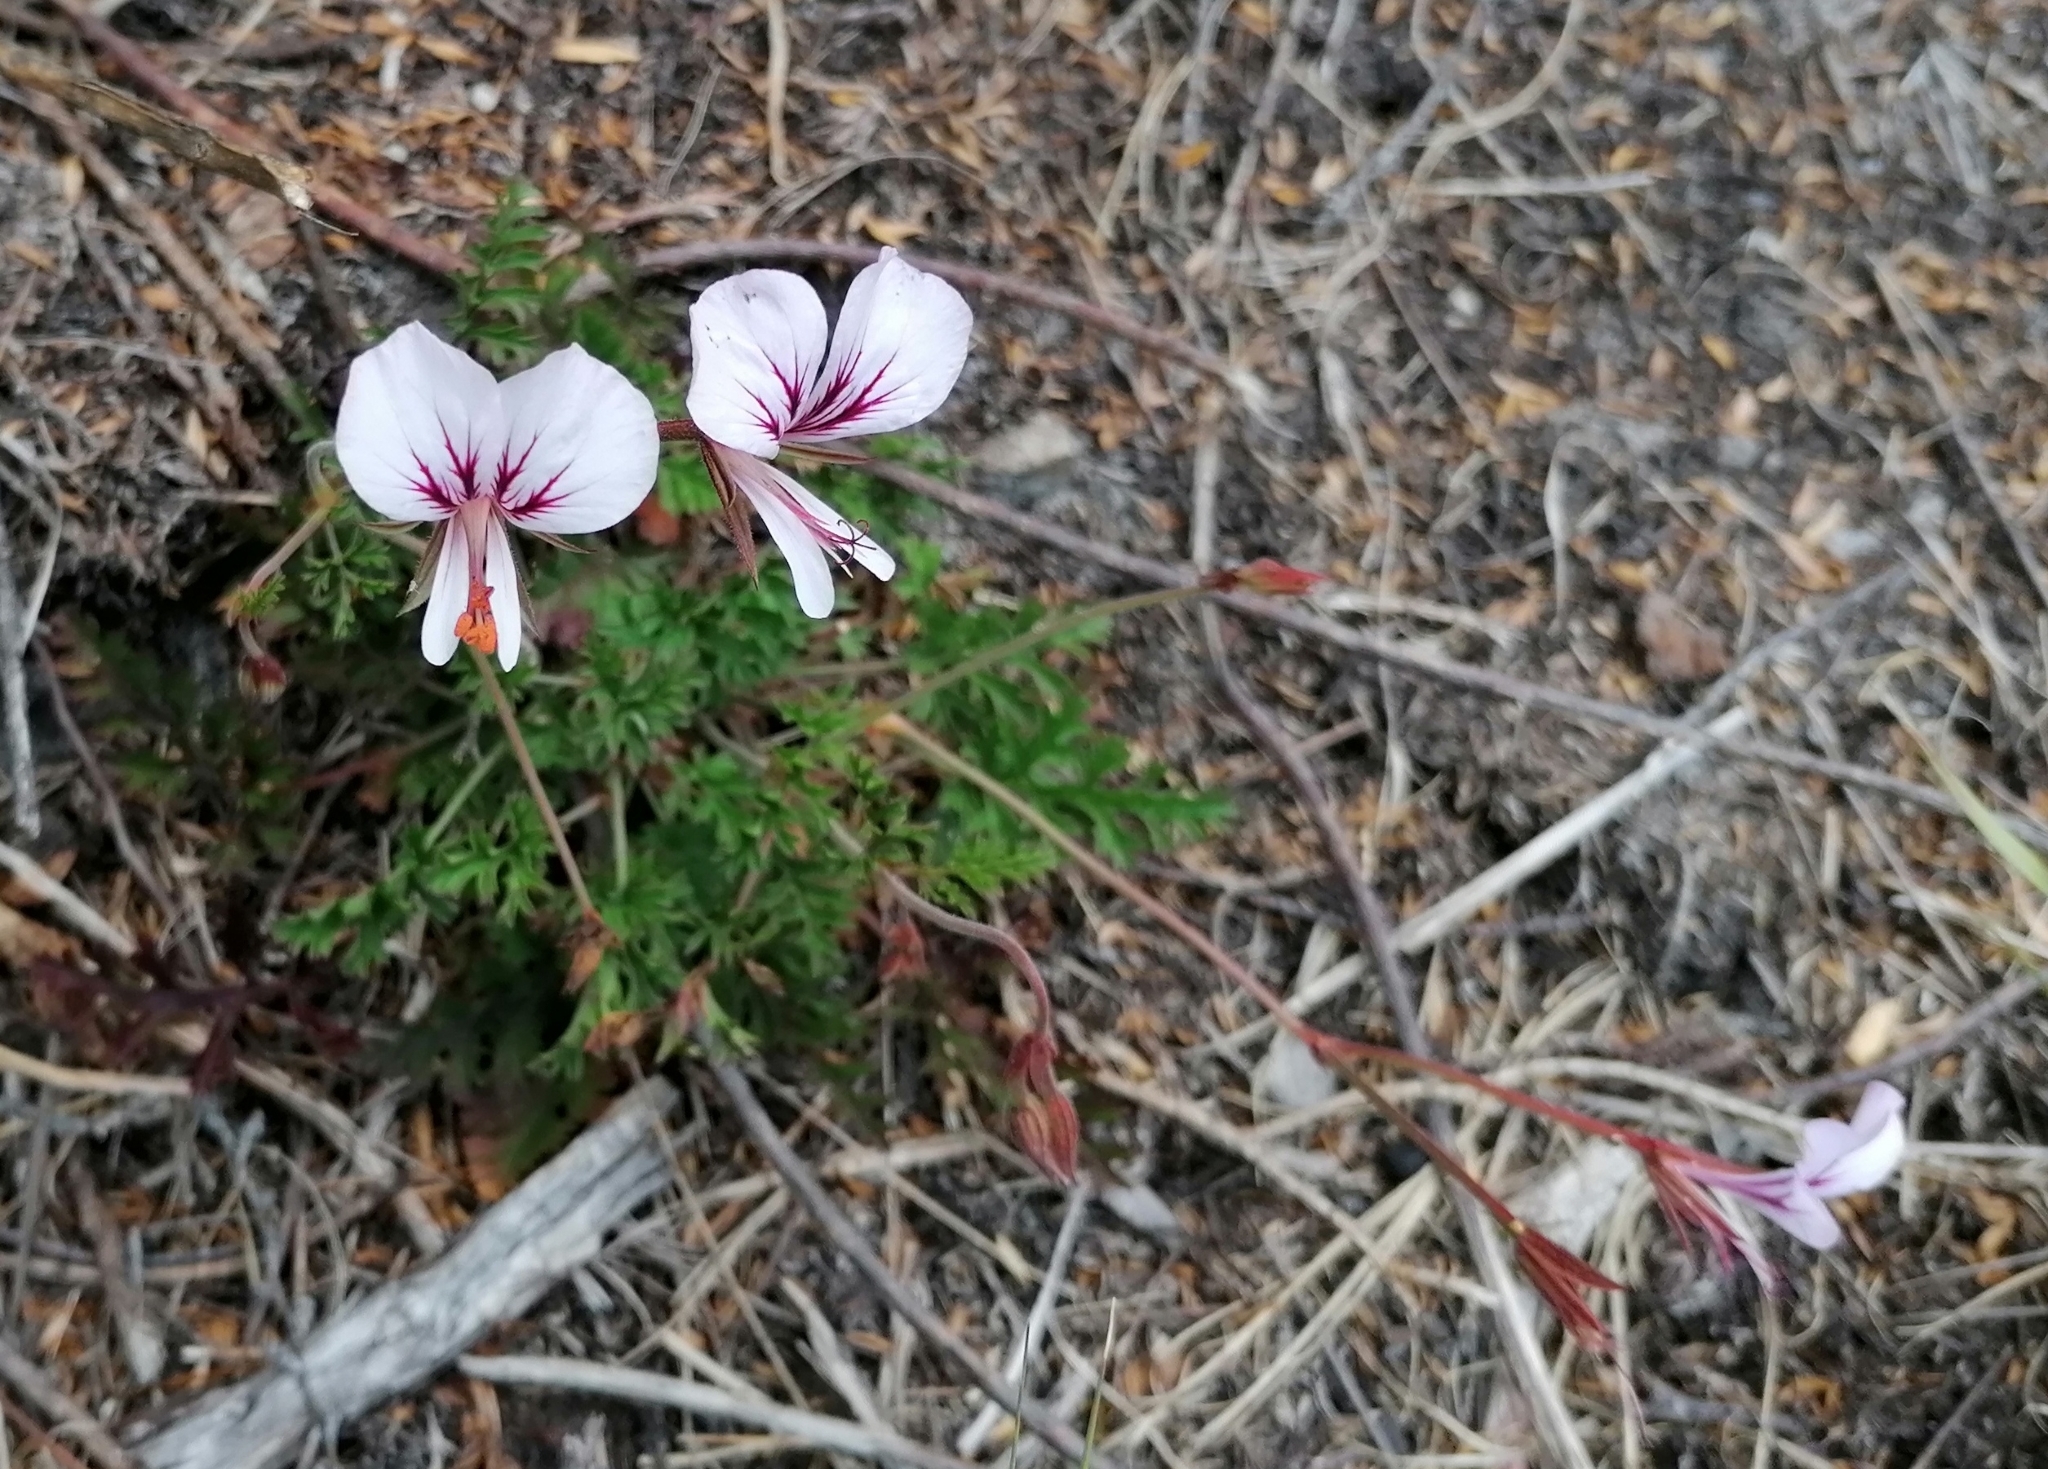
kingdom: Plantae
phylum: Tracheophyta
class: Magnoliopsida
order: Geraniales
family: Geraniaceae
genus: Pelargonium
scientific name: Pelargonium myrrhifolium
